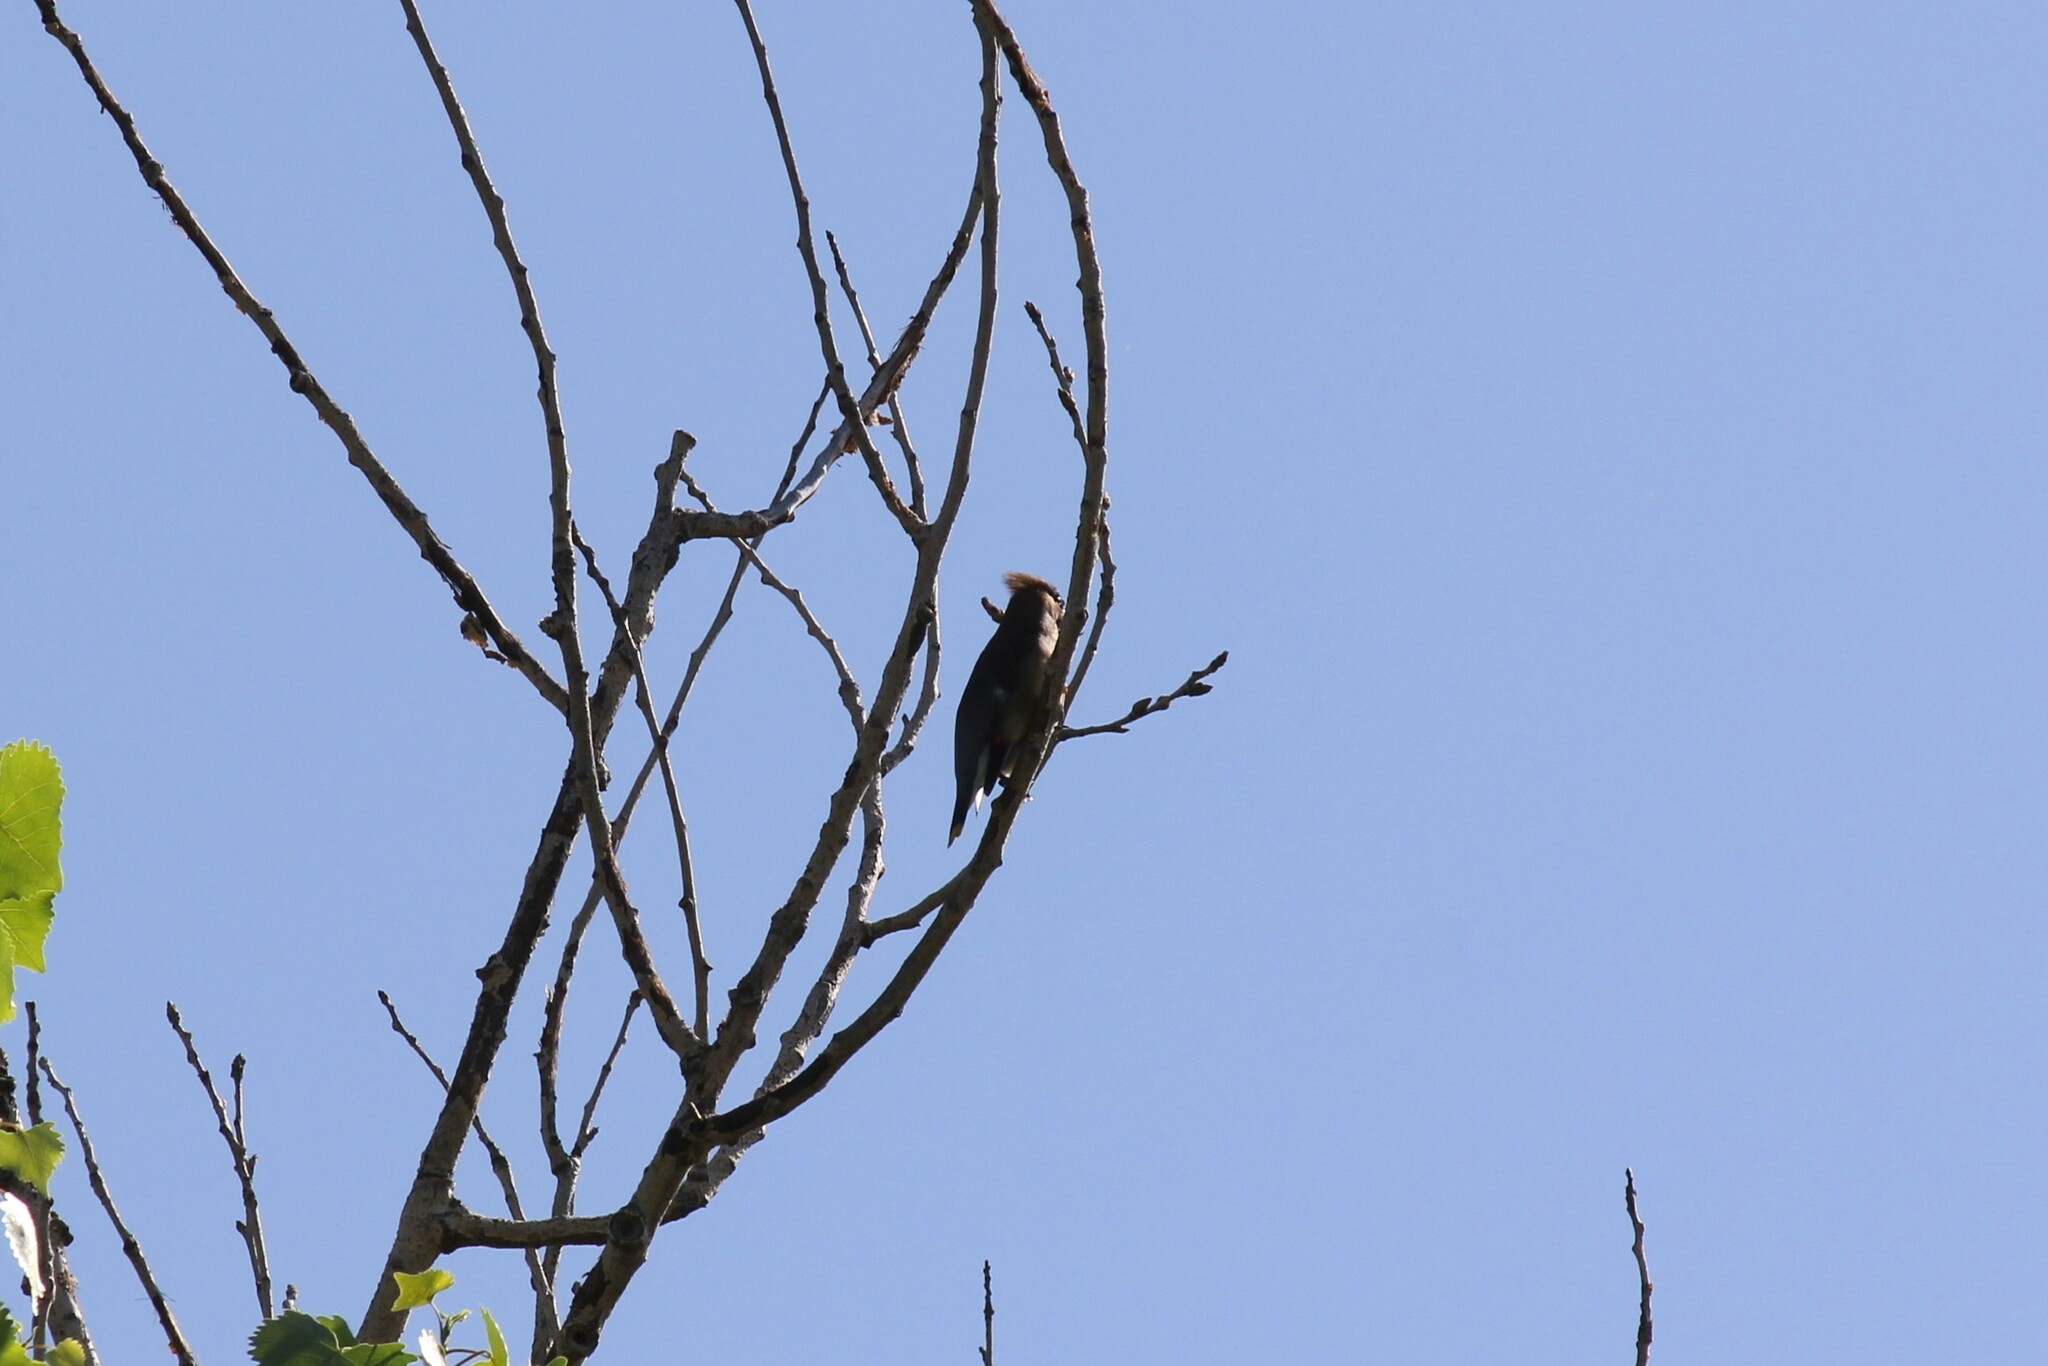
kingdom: Animalia
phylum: Chordata
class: Aves
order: Passeriformes
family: Bombycillidae
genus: Bombycilla
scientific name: Bombycilla cedrorum
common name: Cedar waxwing
